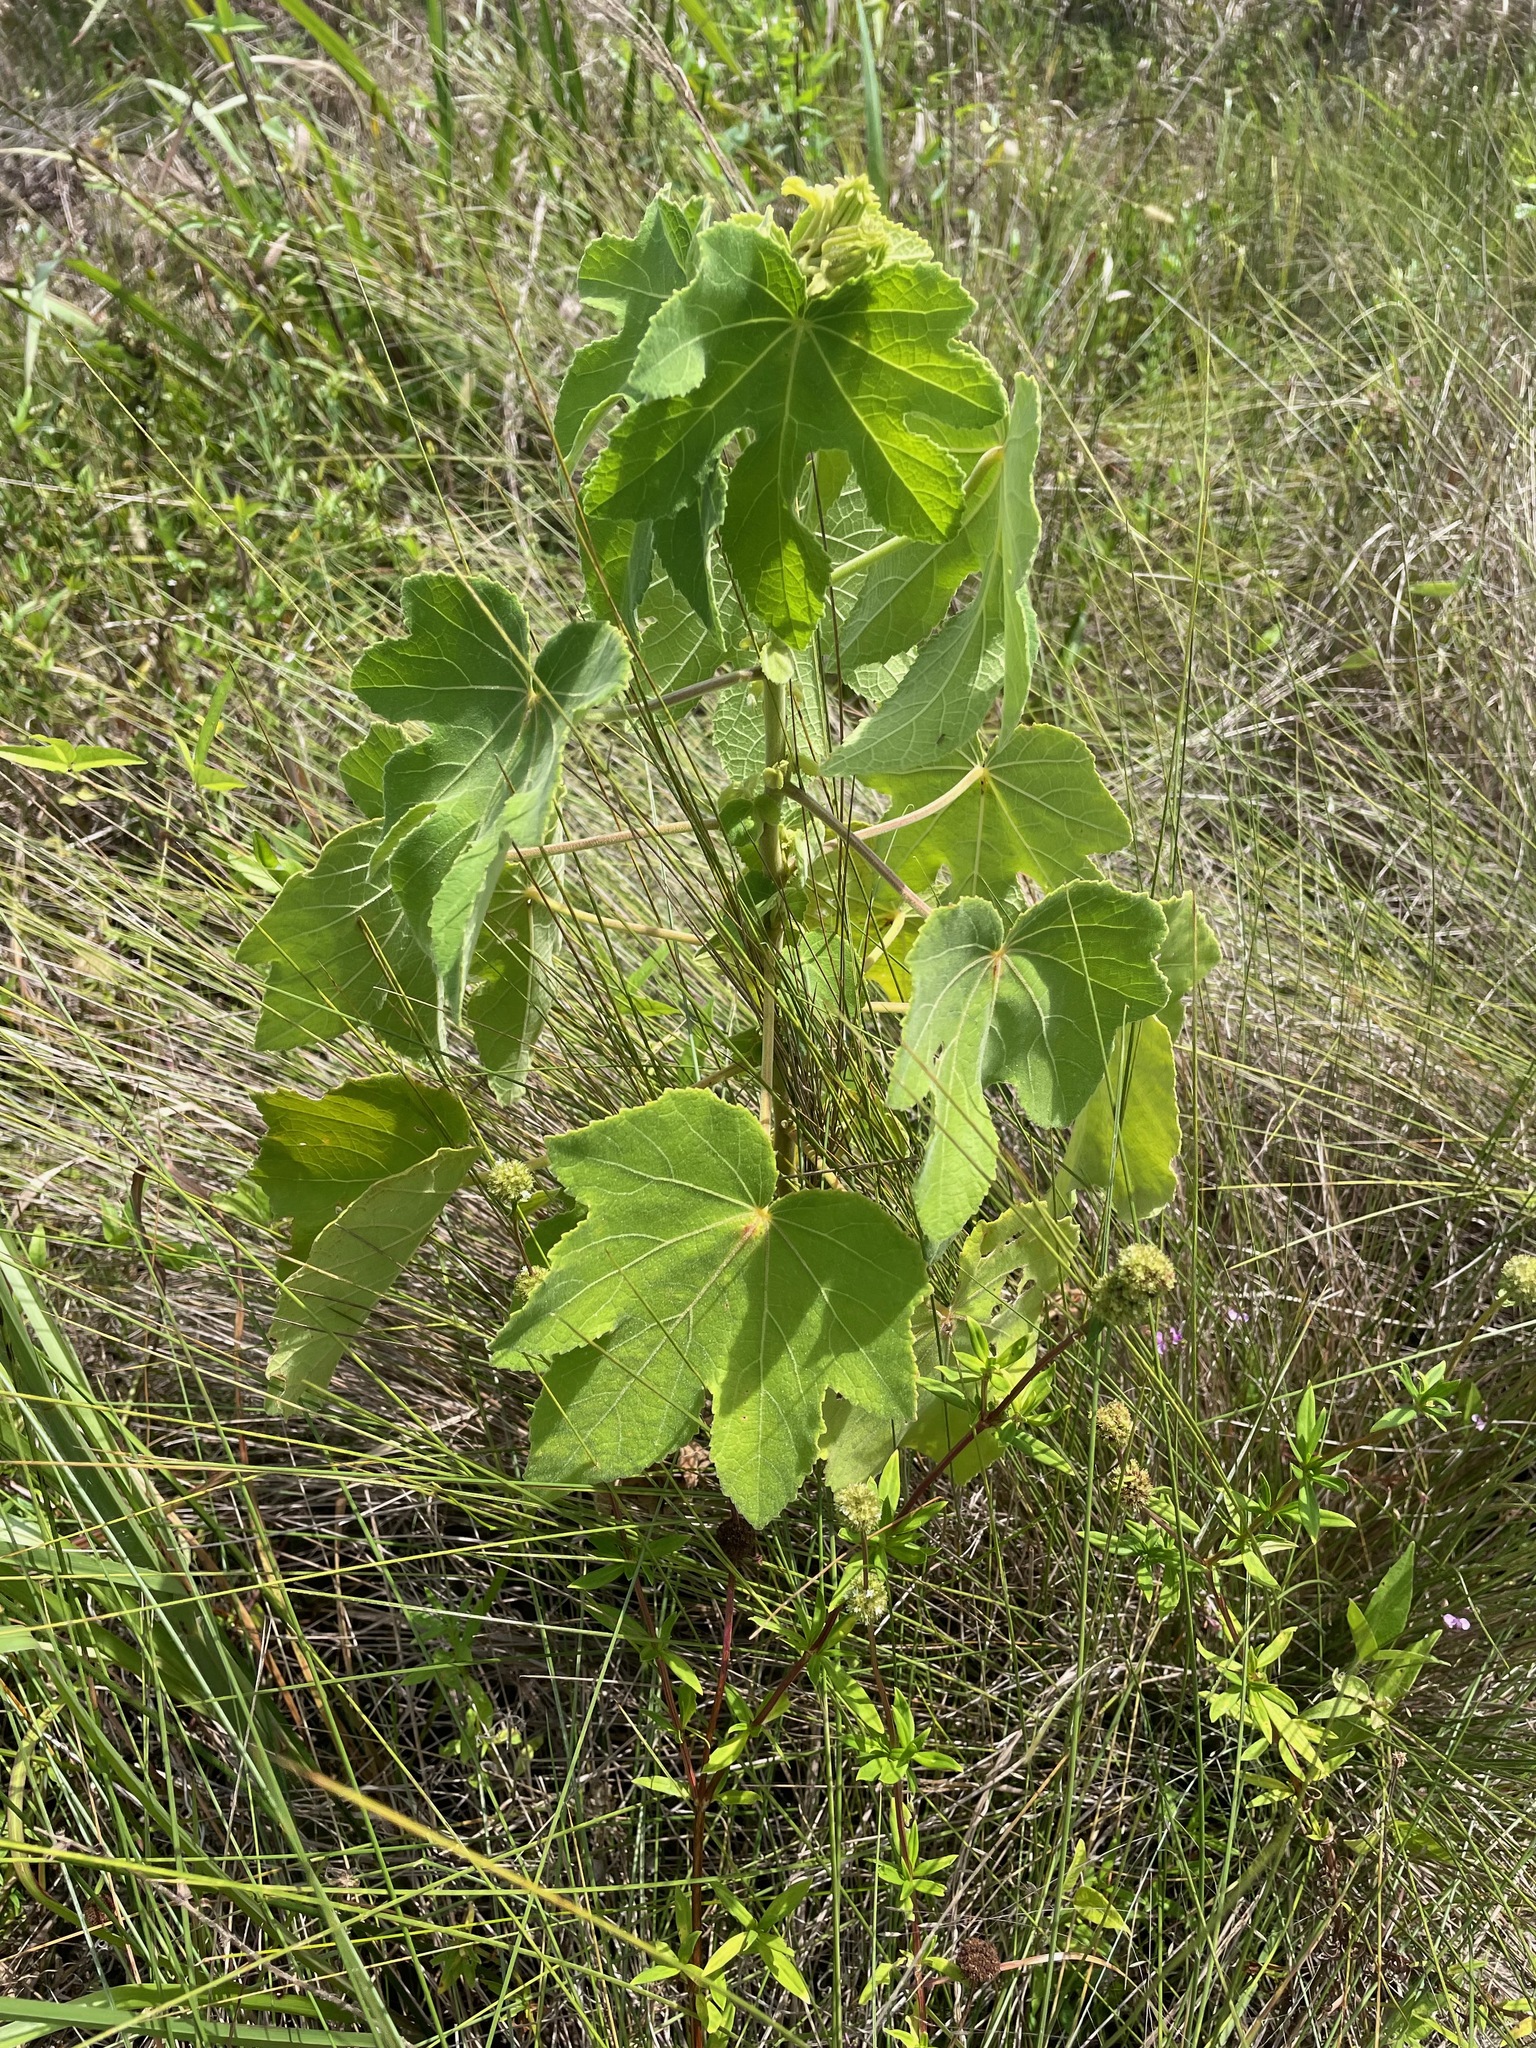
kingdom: Plantae
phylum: Tracheophyta
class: Magnoliopsida
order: Malvales
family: Malvaceae
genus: Hibiscus
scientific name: Hibiscus furcellatus
